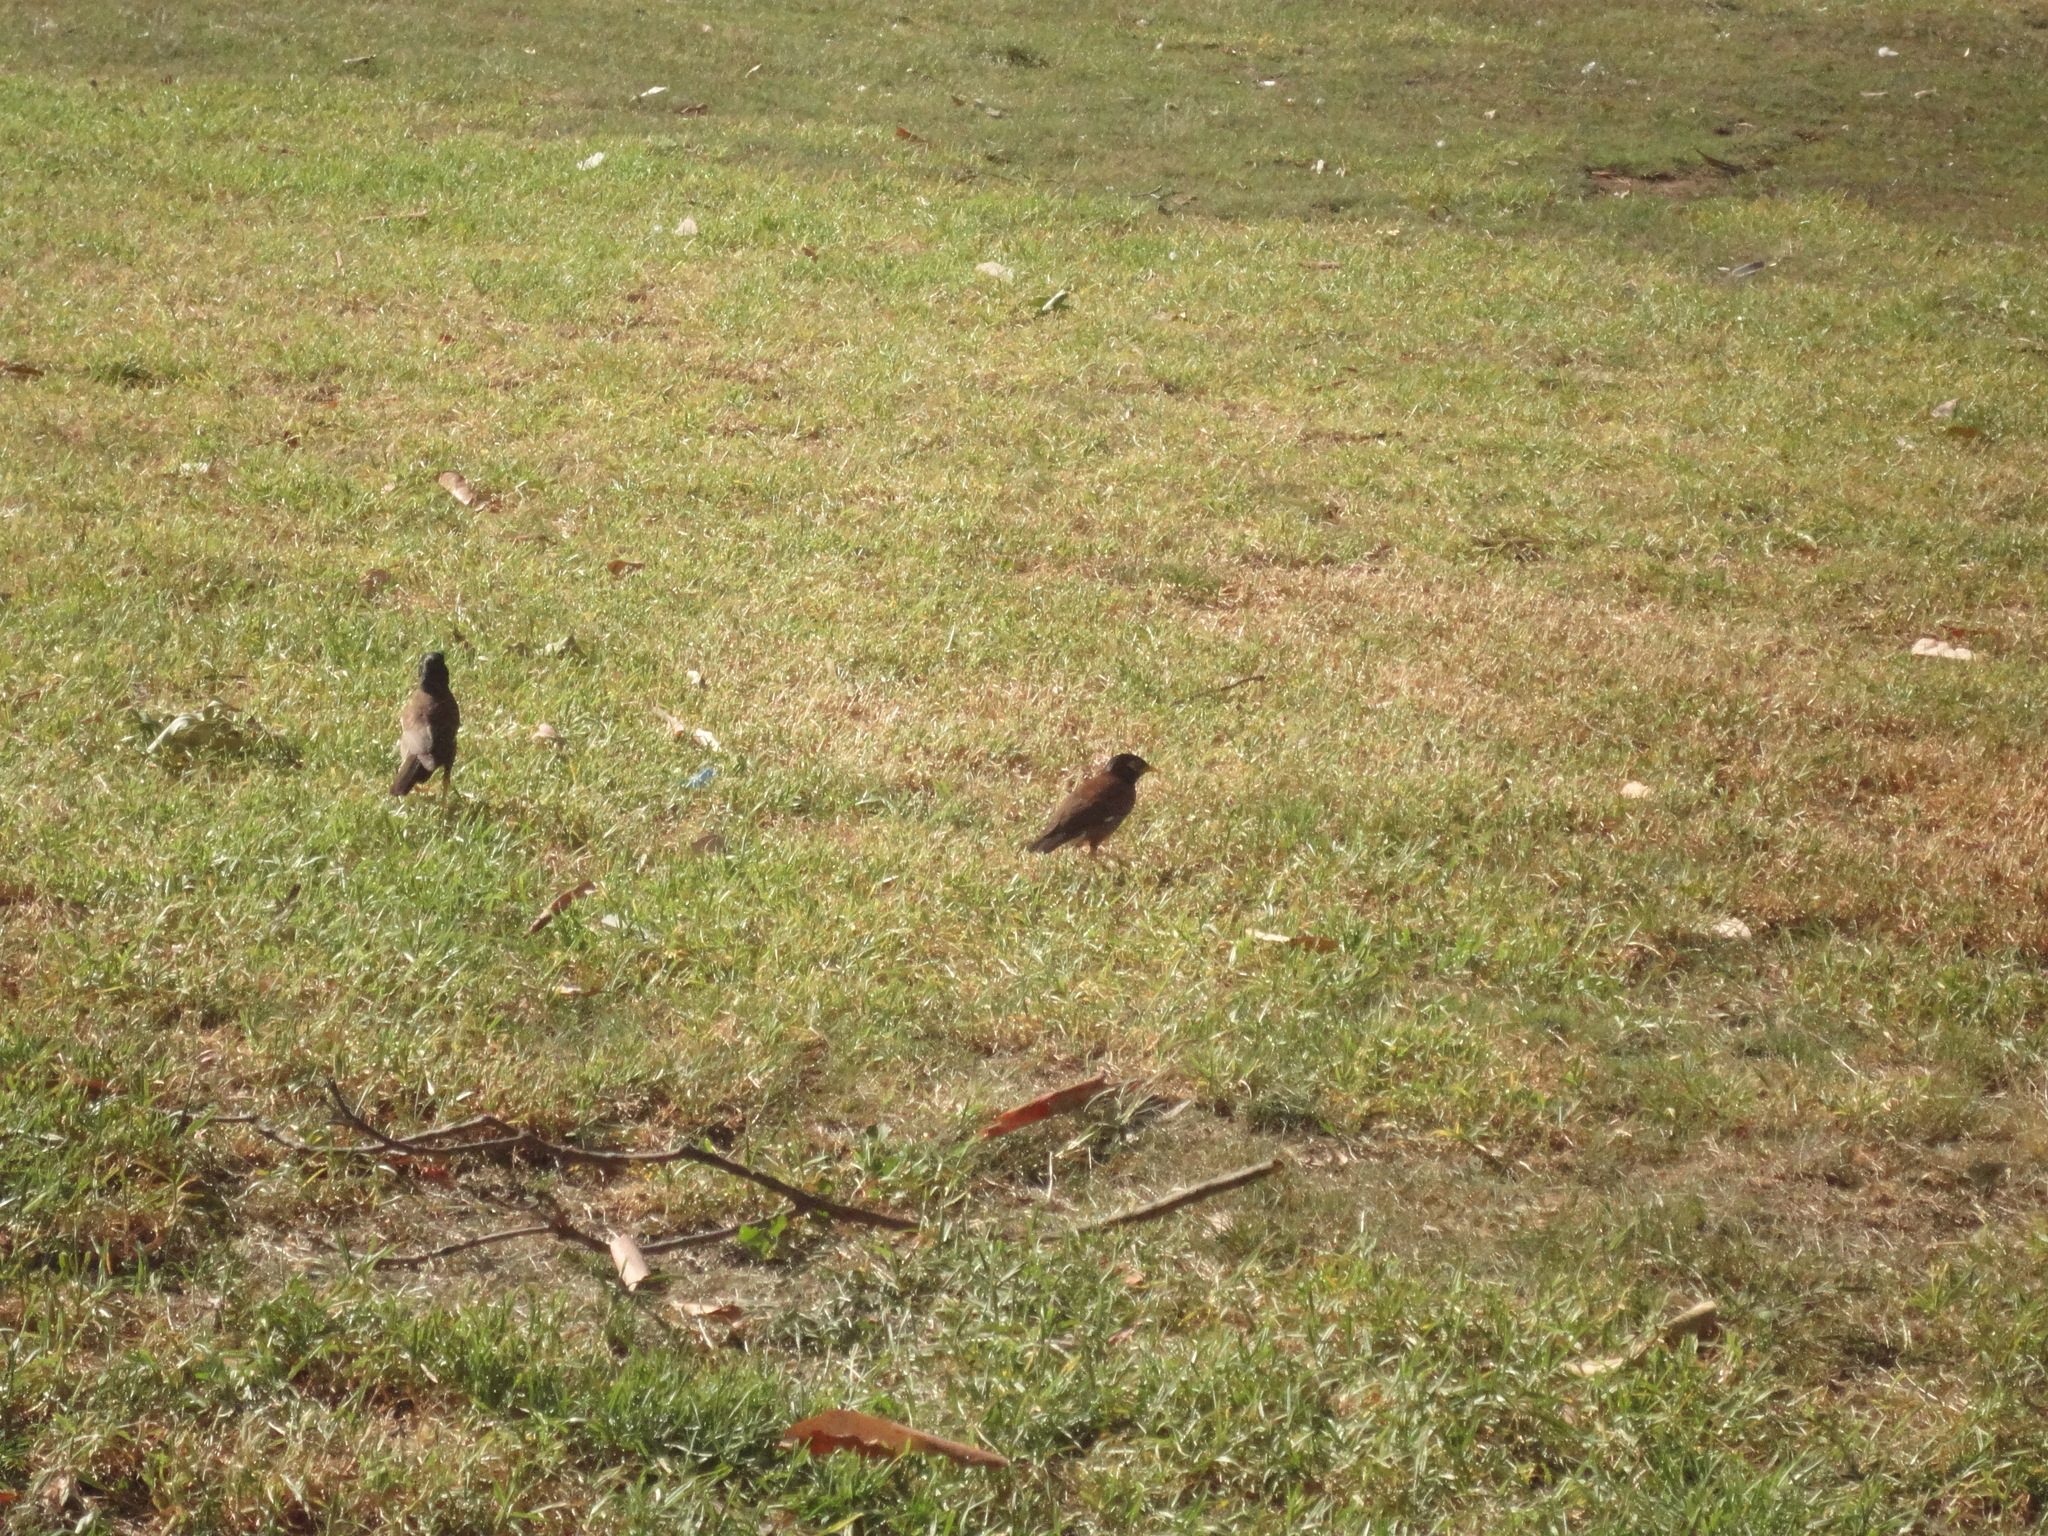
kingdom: Animalia
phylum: Chordata
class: Aves
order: Passeriformes
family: Sturnidae
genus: Acridotheres
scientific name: Acridotheres tristis
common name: Common myna
